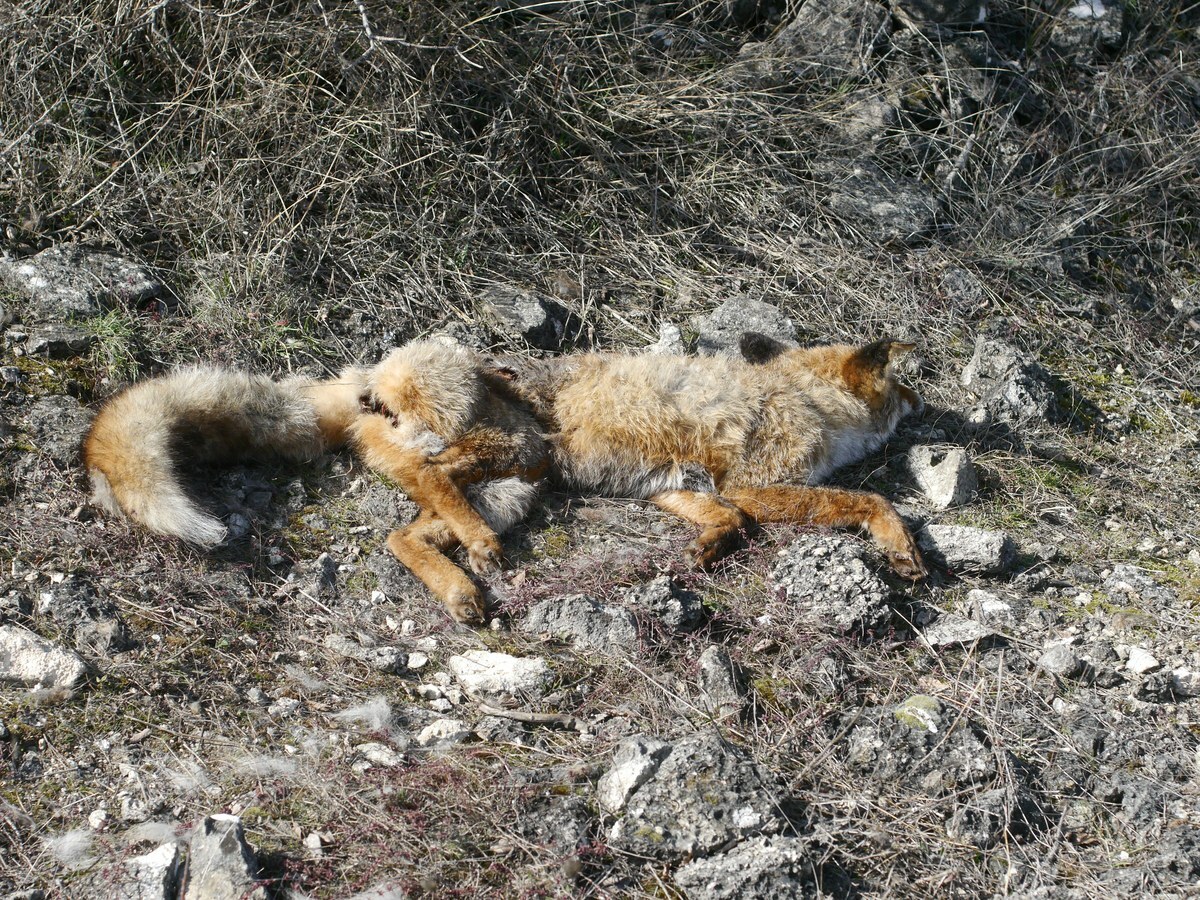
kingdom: Animalia
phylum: Chordata
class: Mammalia
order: Carnivora
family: Canidae
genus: Vulpes
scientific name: Vulpes vulpes
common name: Red fox
